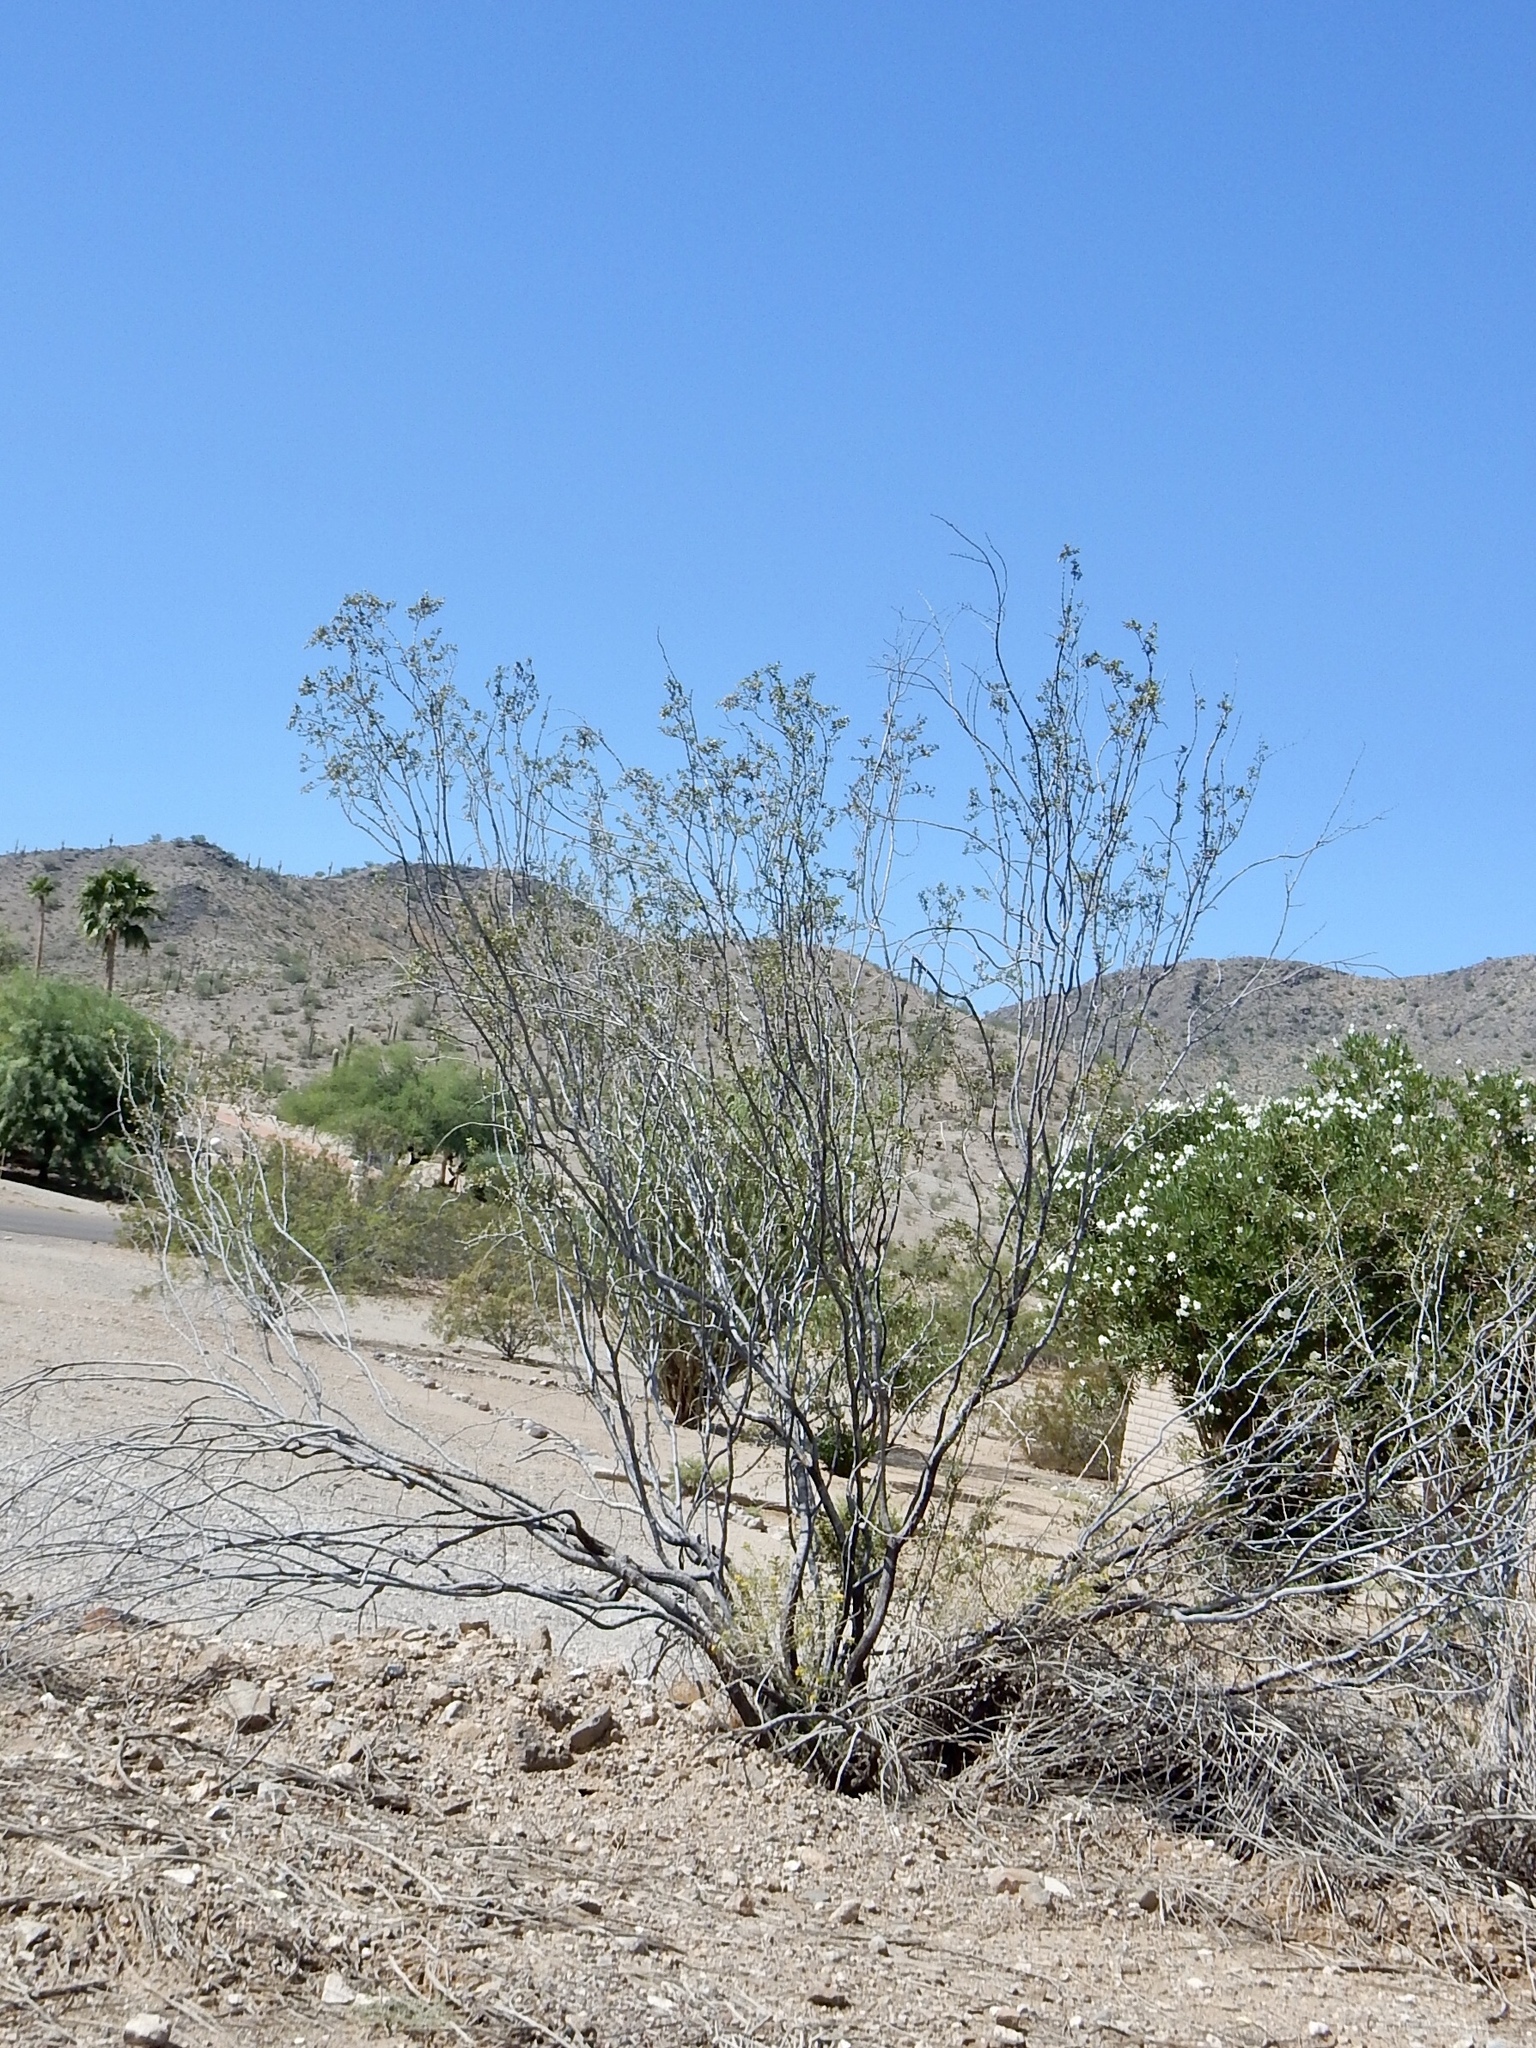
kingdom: Plantae
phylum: Tracheophyta
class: Magnoliopsida
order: Zygophyllales
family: Zygophyllaceae
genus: Larrea
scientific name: Larrea tridentata
